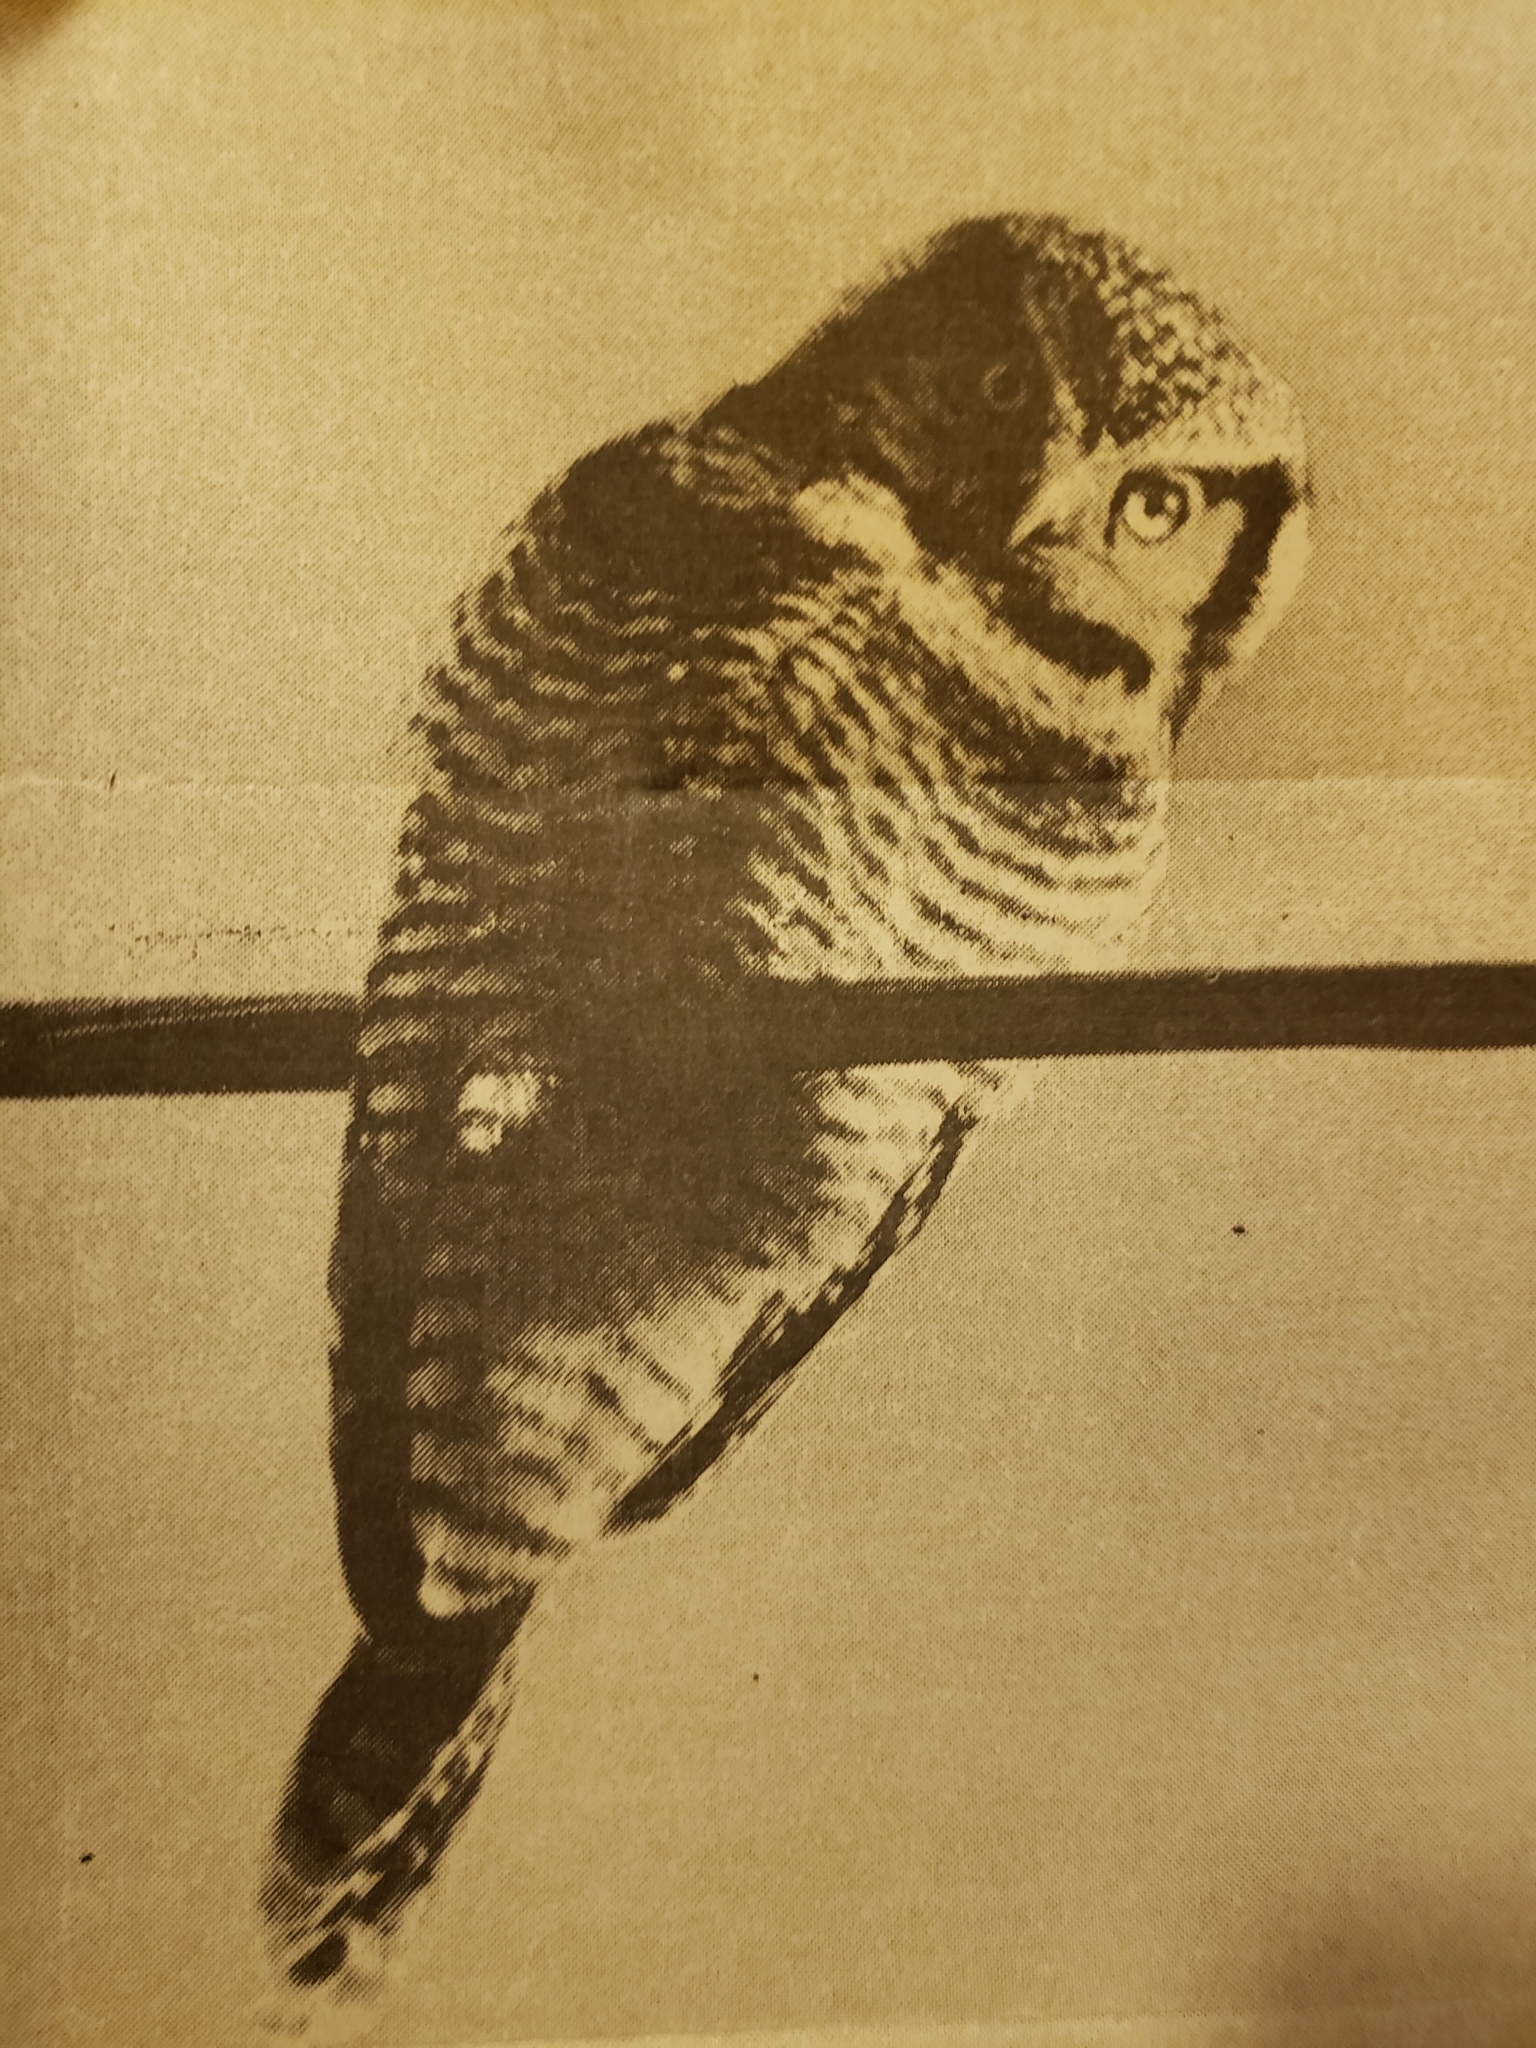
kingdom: Animalia
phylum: Chordata
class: Aves
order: Strigiformes
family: Strigidae
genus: Surnia
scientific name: Surnia ulula
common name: Northern hawk-owl
